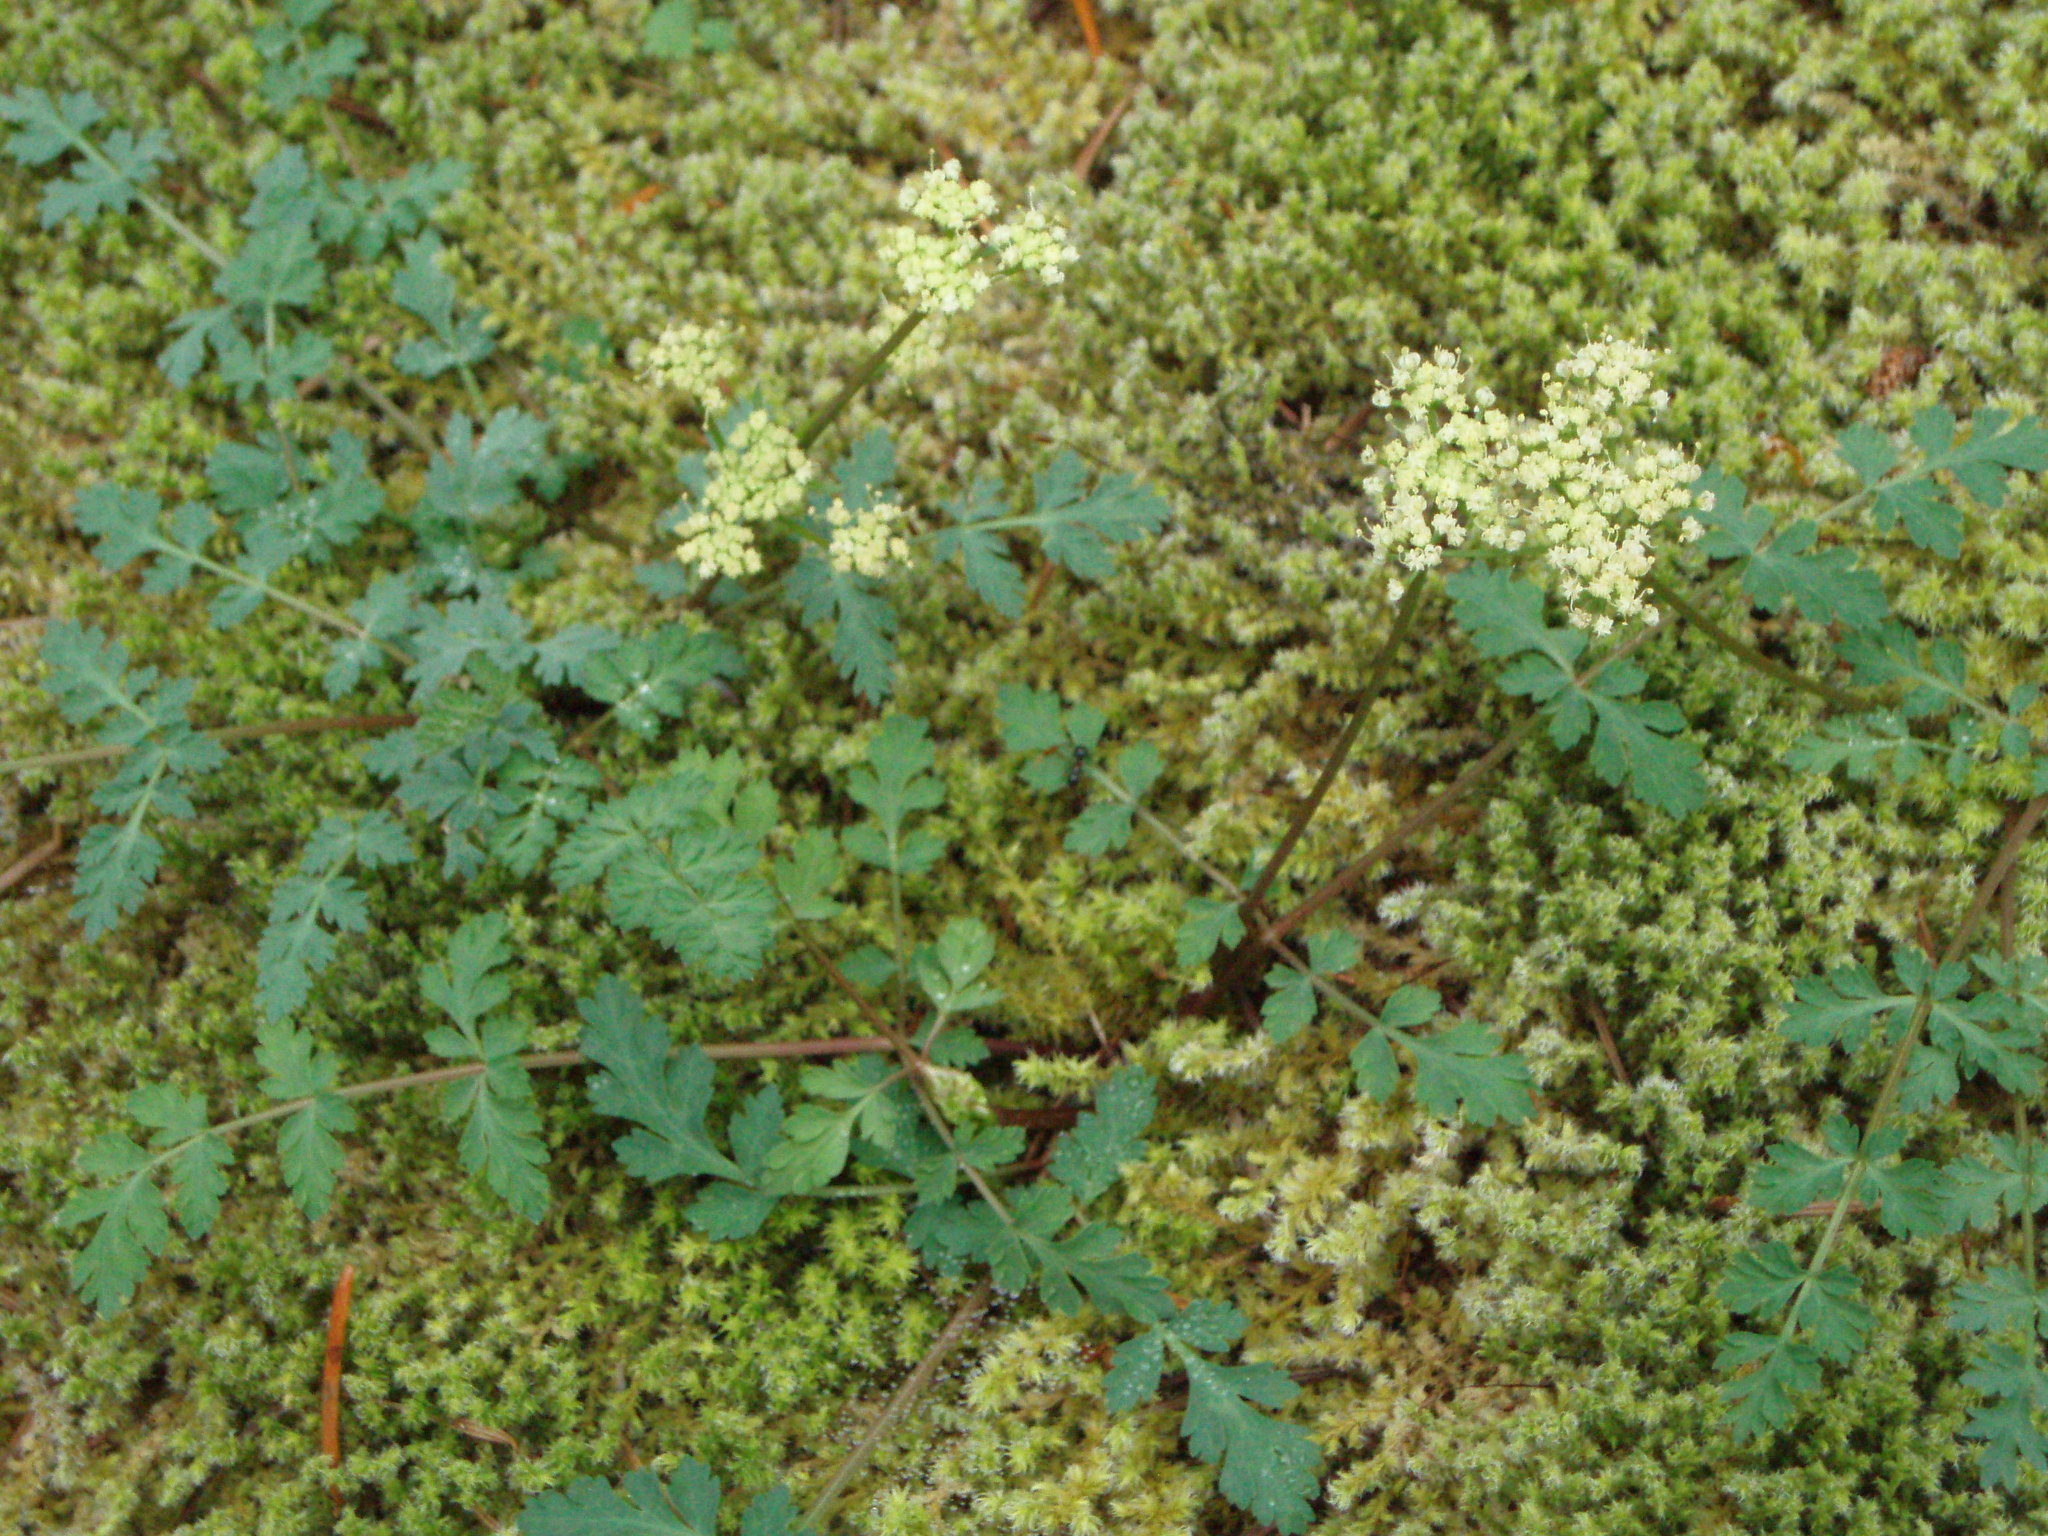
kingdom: Plantae
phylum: Tracheophyta
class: Magnoliopsida
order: Apiales
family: Apiaceae
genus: Lomatium
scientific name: Lomatium martindalei
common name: Cascade desert-parsley
